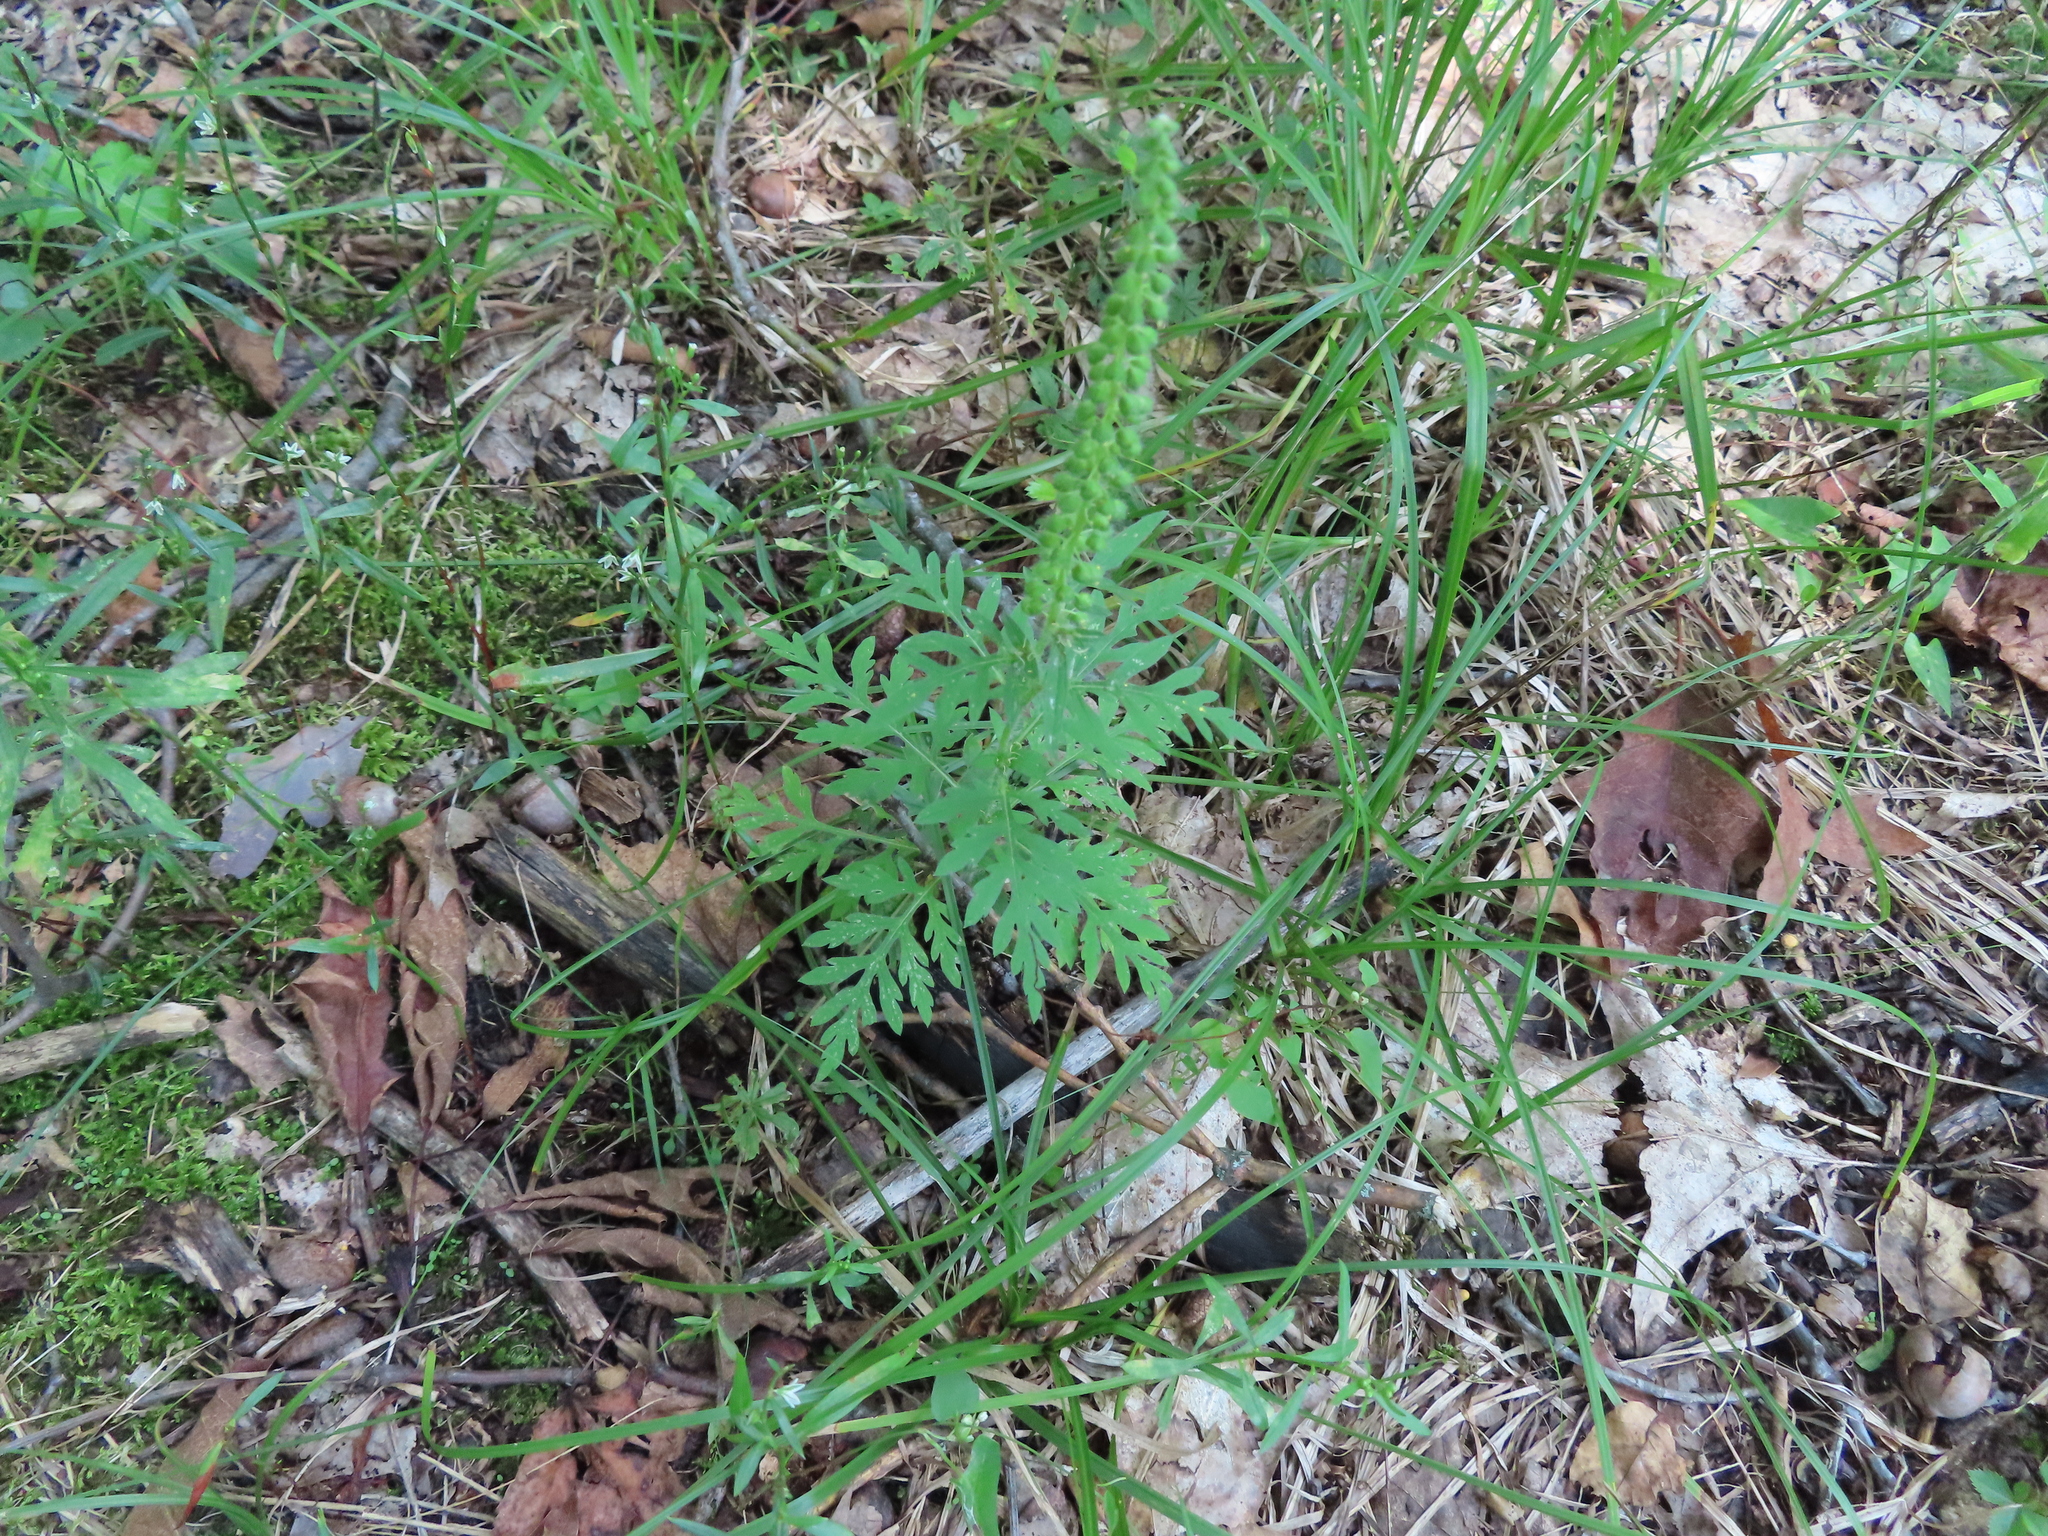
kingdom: Plantae
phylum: Tracheophyta
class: Magnoliopsida
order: Asterales
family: Asteraceae
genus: Ambrosia
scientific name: Ambrosia artemisiifolia
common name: Annual ragweed
